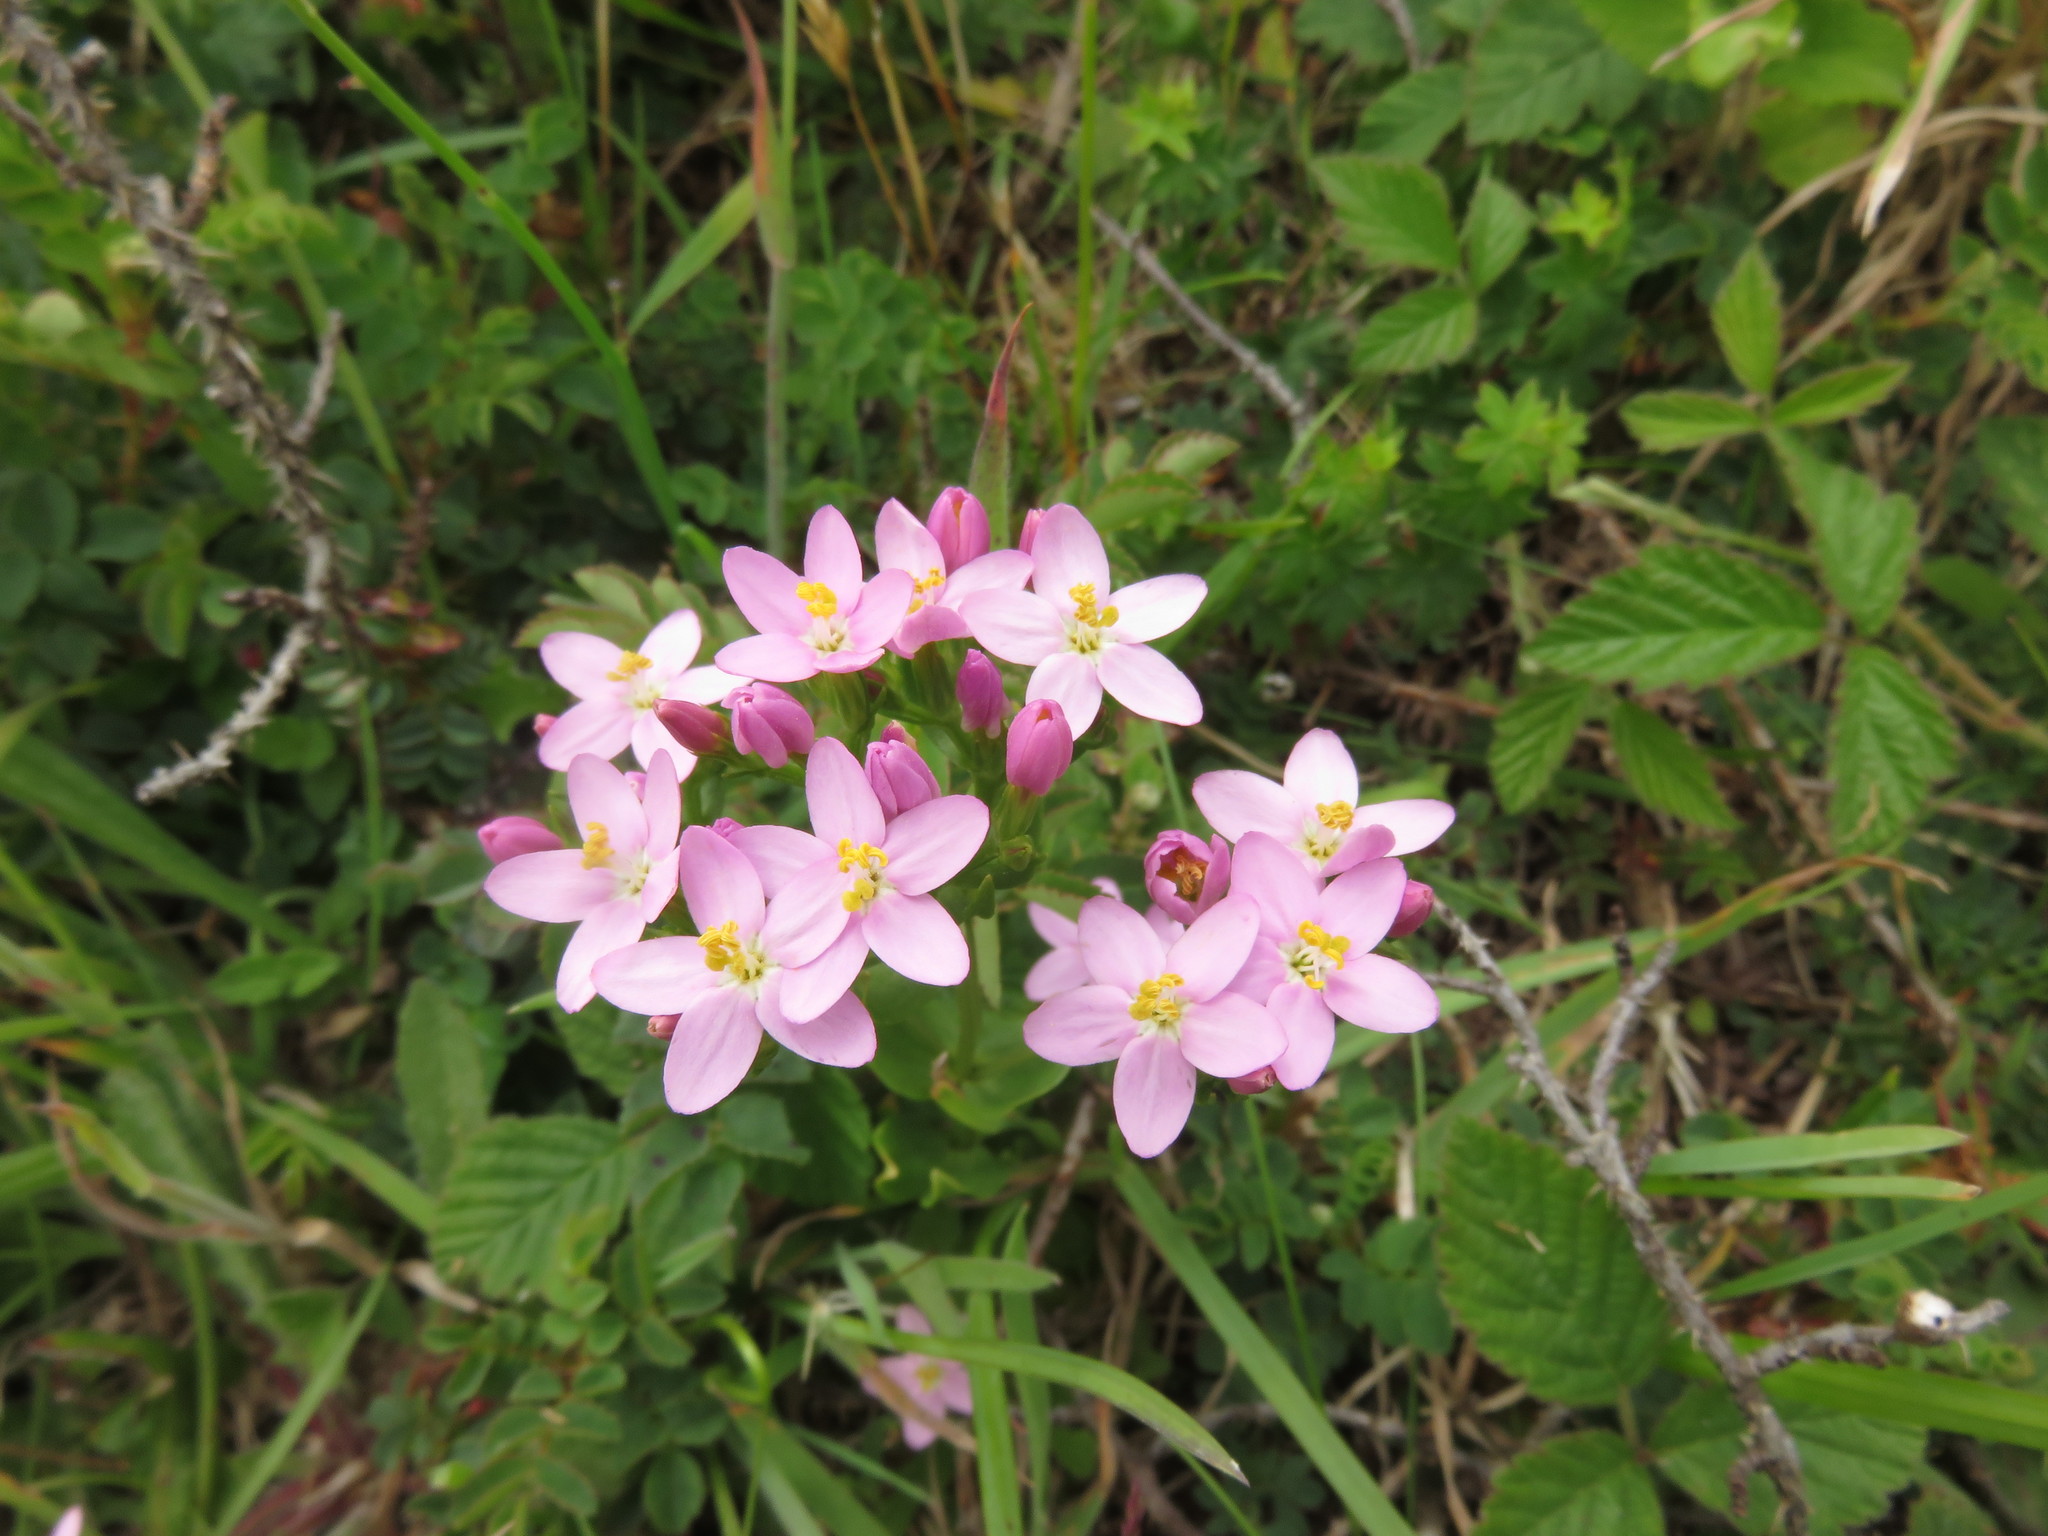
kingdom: Plantae
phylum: Tracheophyta
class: Magnoliopsida
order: Gentianales
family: Gentianaceae
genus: Centaurium
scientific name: Centaurium erythraea
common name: Common centaury
